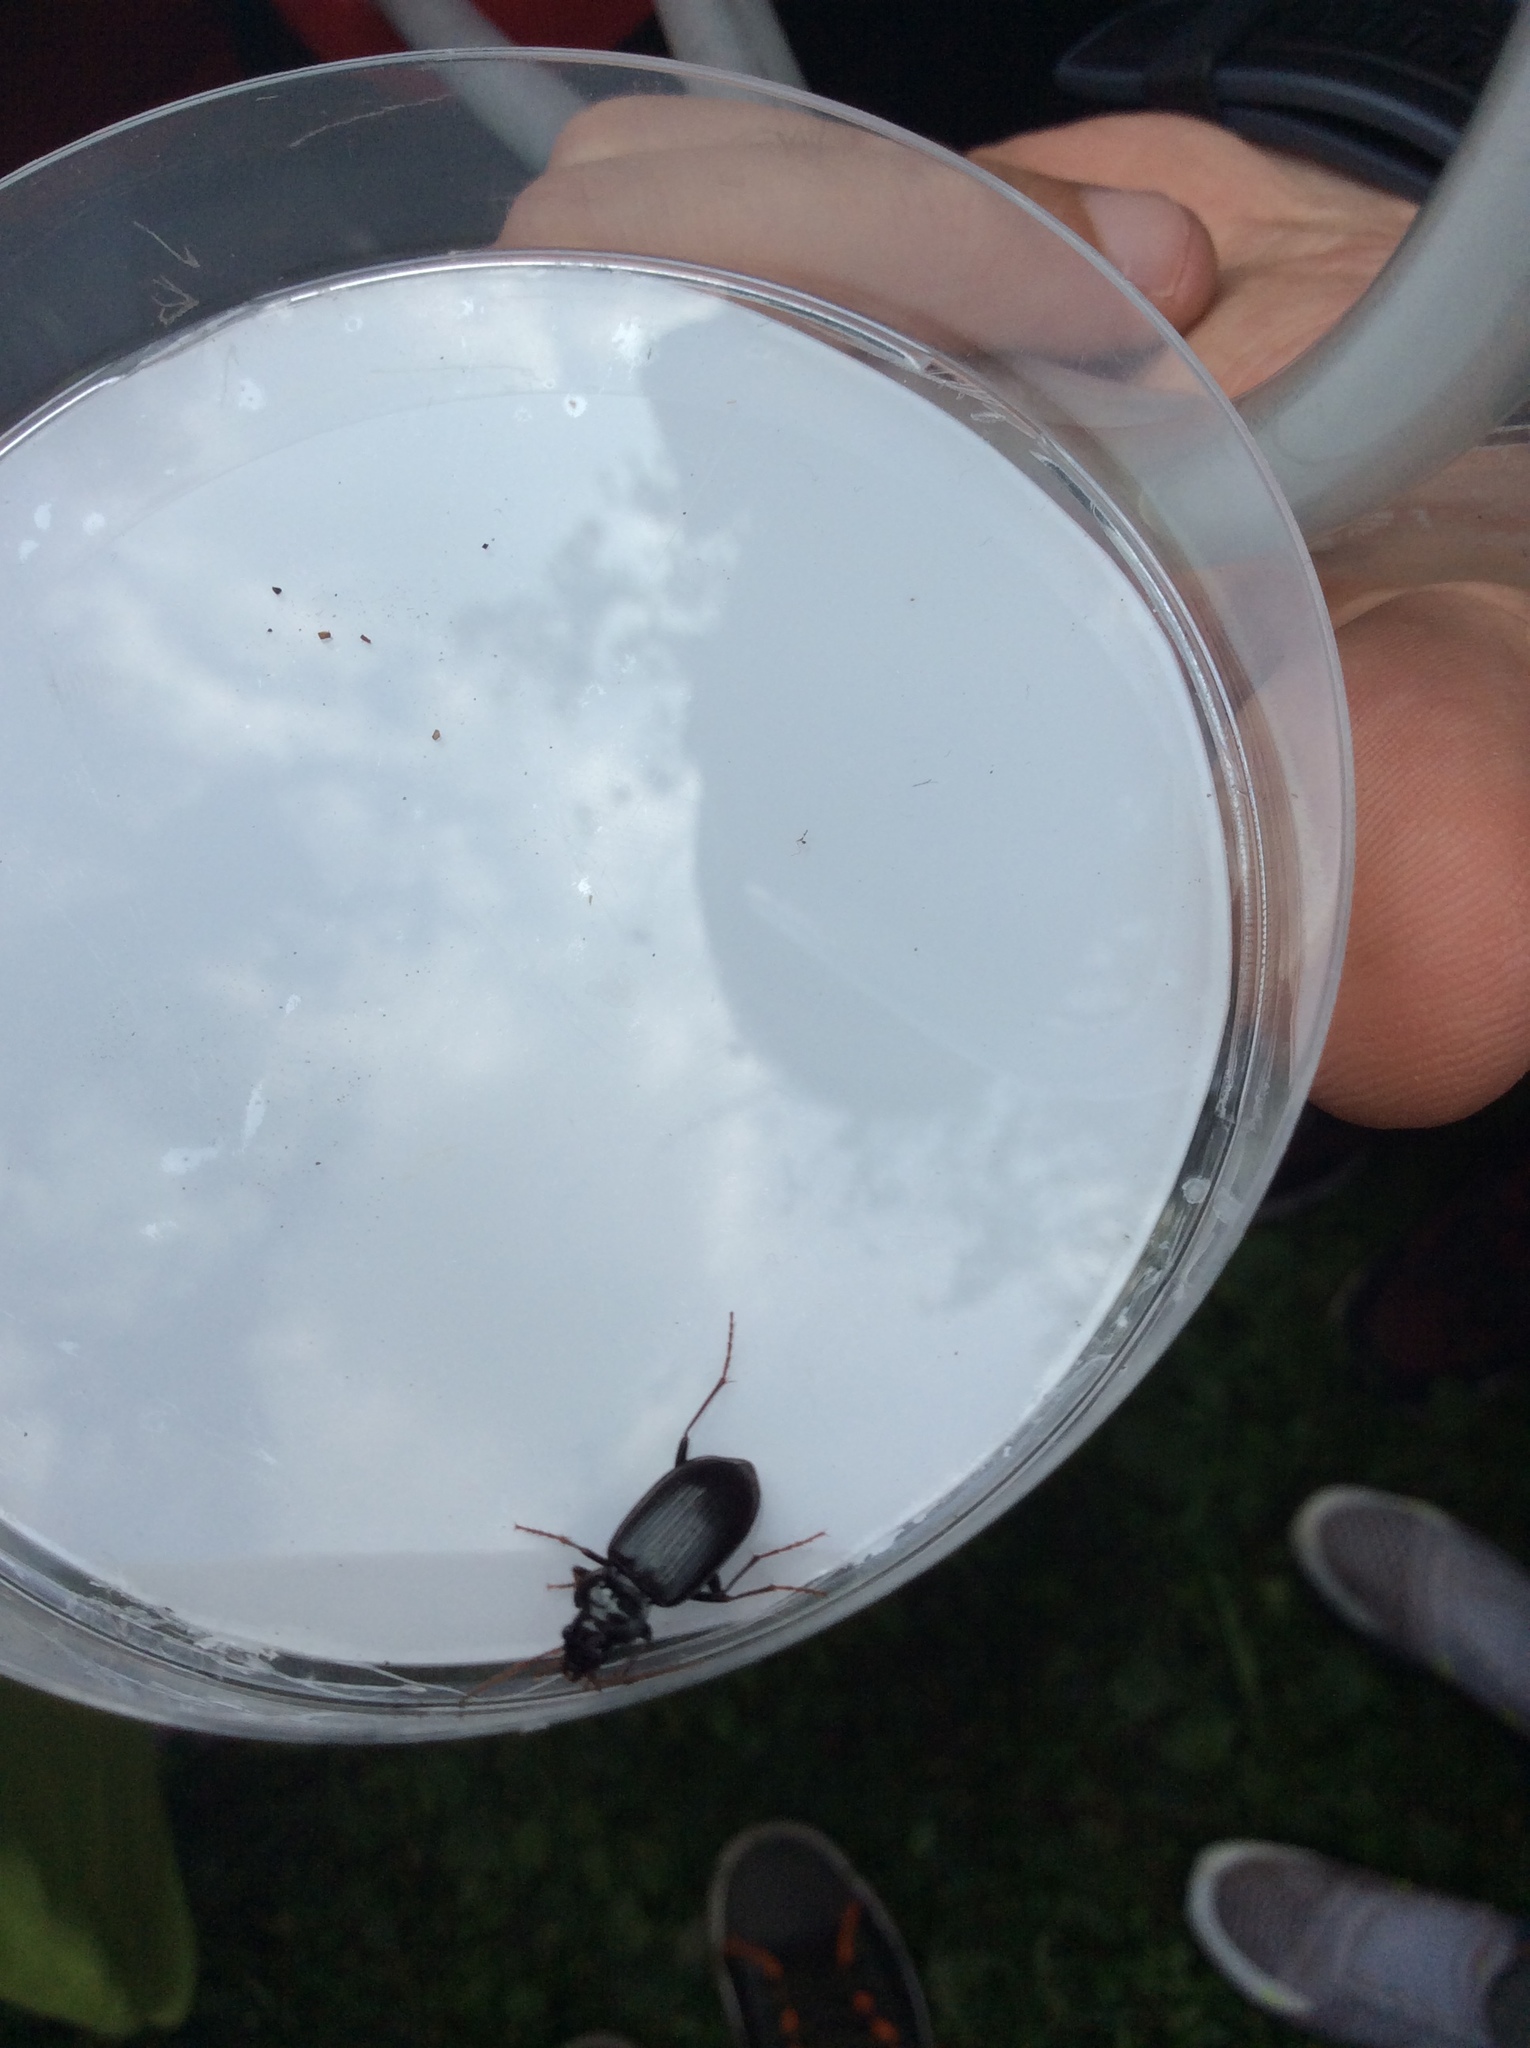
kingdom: Animalia
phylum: Arthropoda
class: Insecta
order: Coleoptera
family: Carabidae
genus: Nebria
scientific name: Nebria brevicollis
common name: Short-necked gazelle beetle
